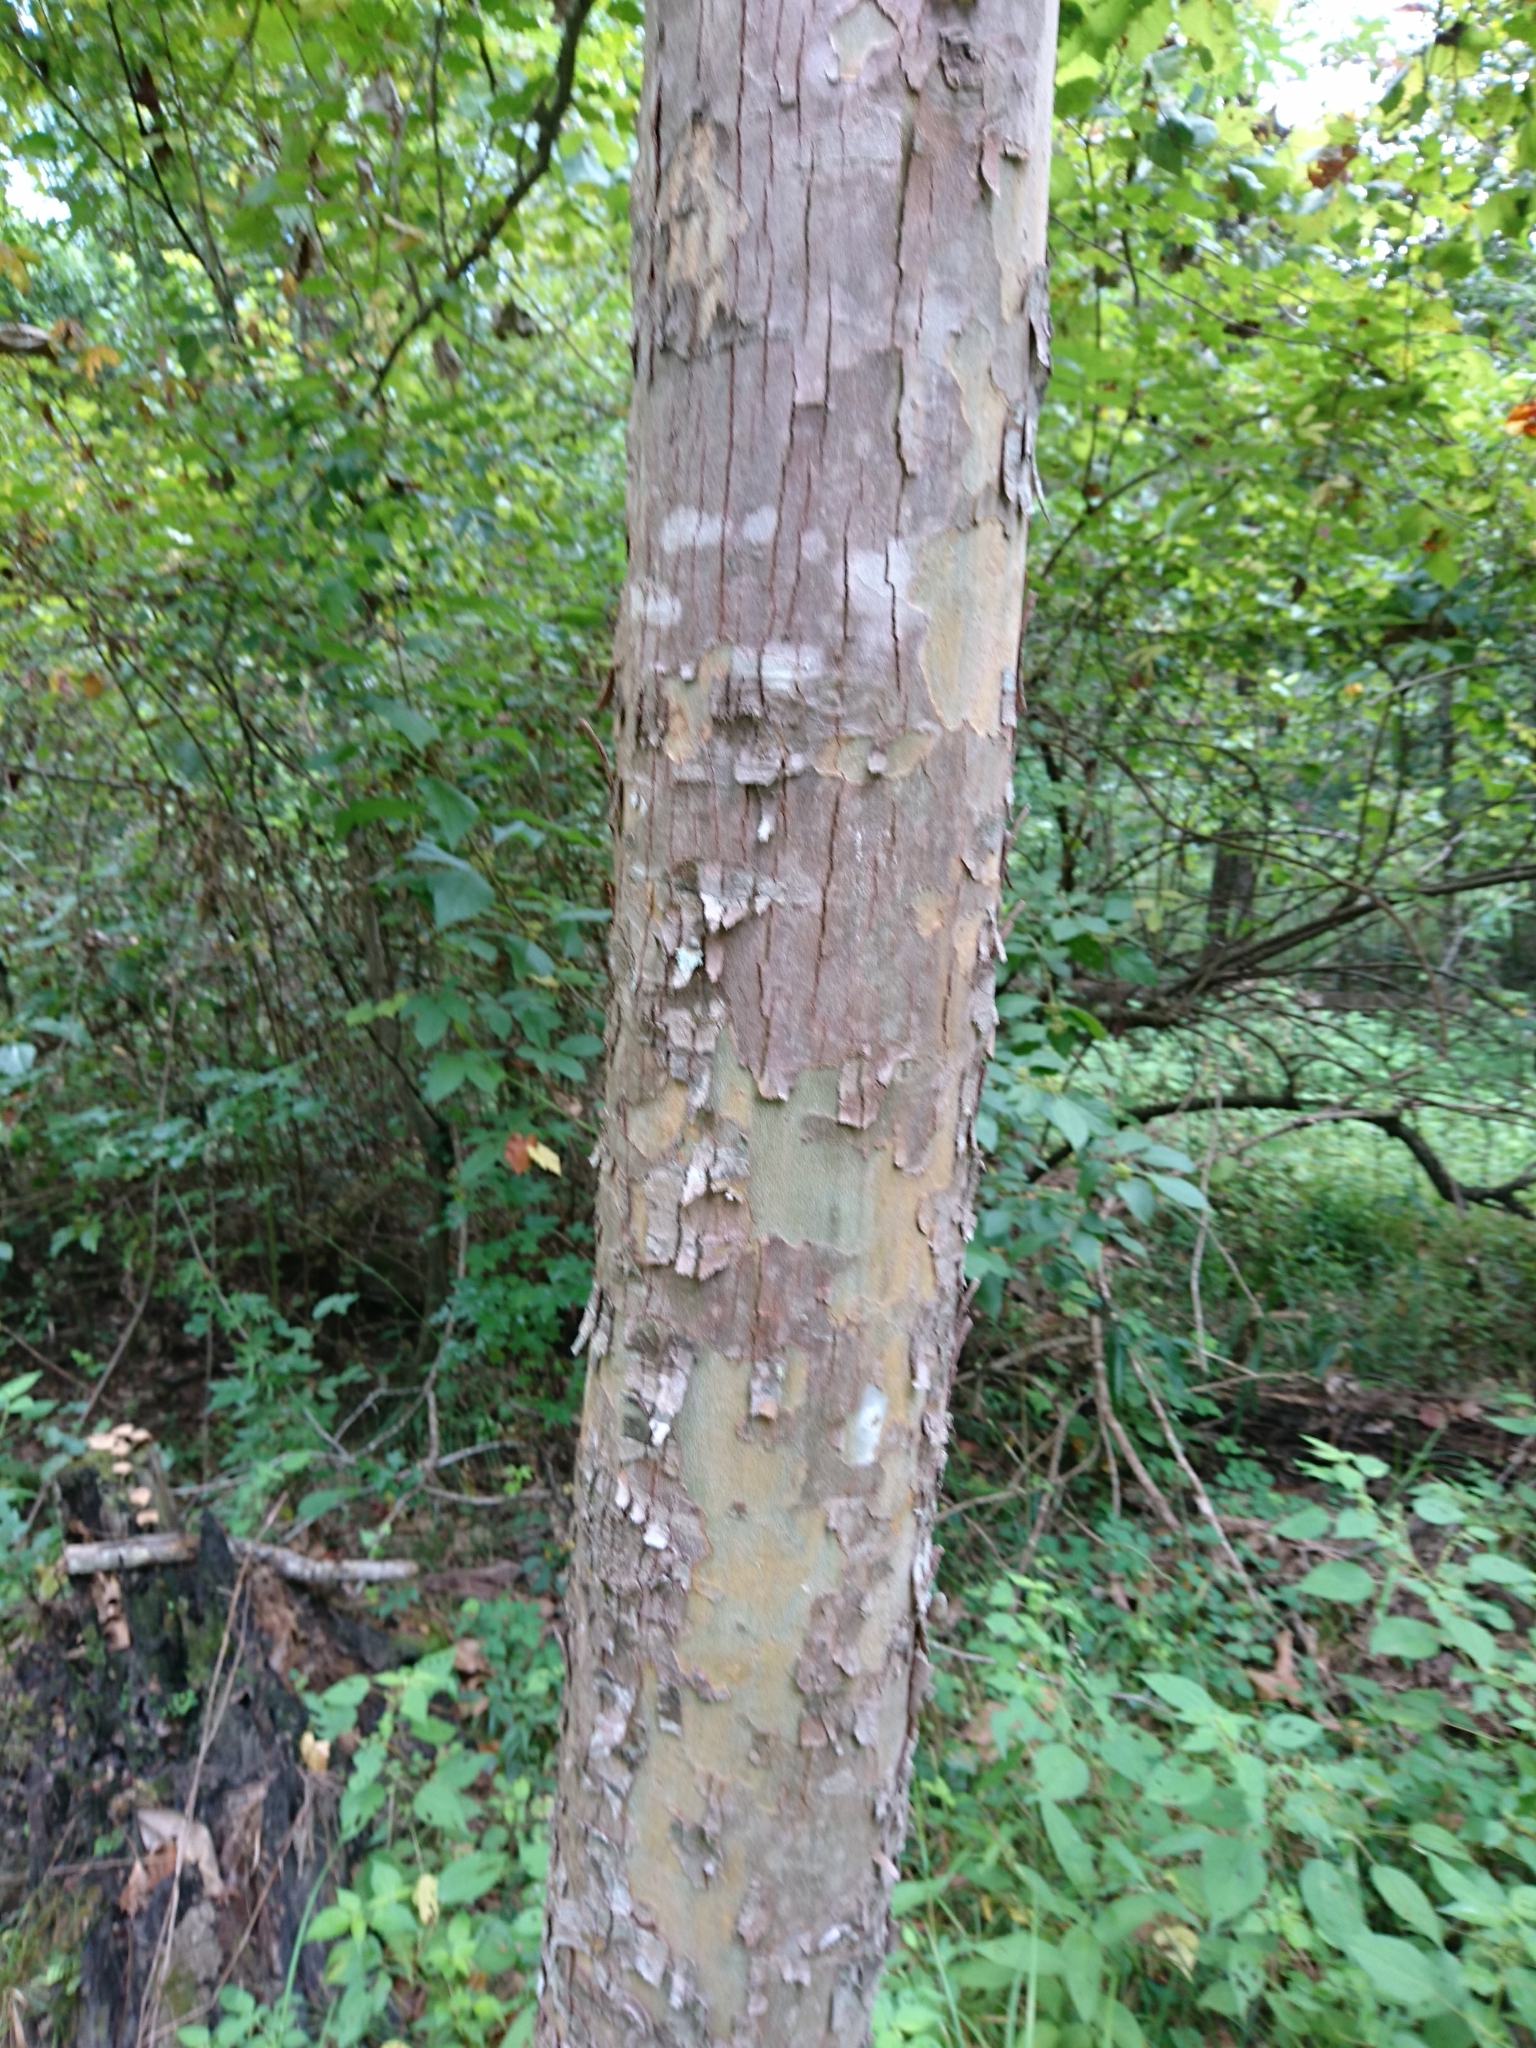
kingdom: Plantae
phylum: Tracheophyta
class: Magnoliopsida
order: Proteales
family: Platanaceae
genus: Platanus
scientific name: Platanus occidentalis
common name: American sycamore
